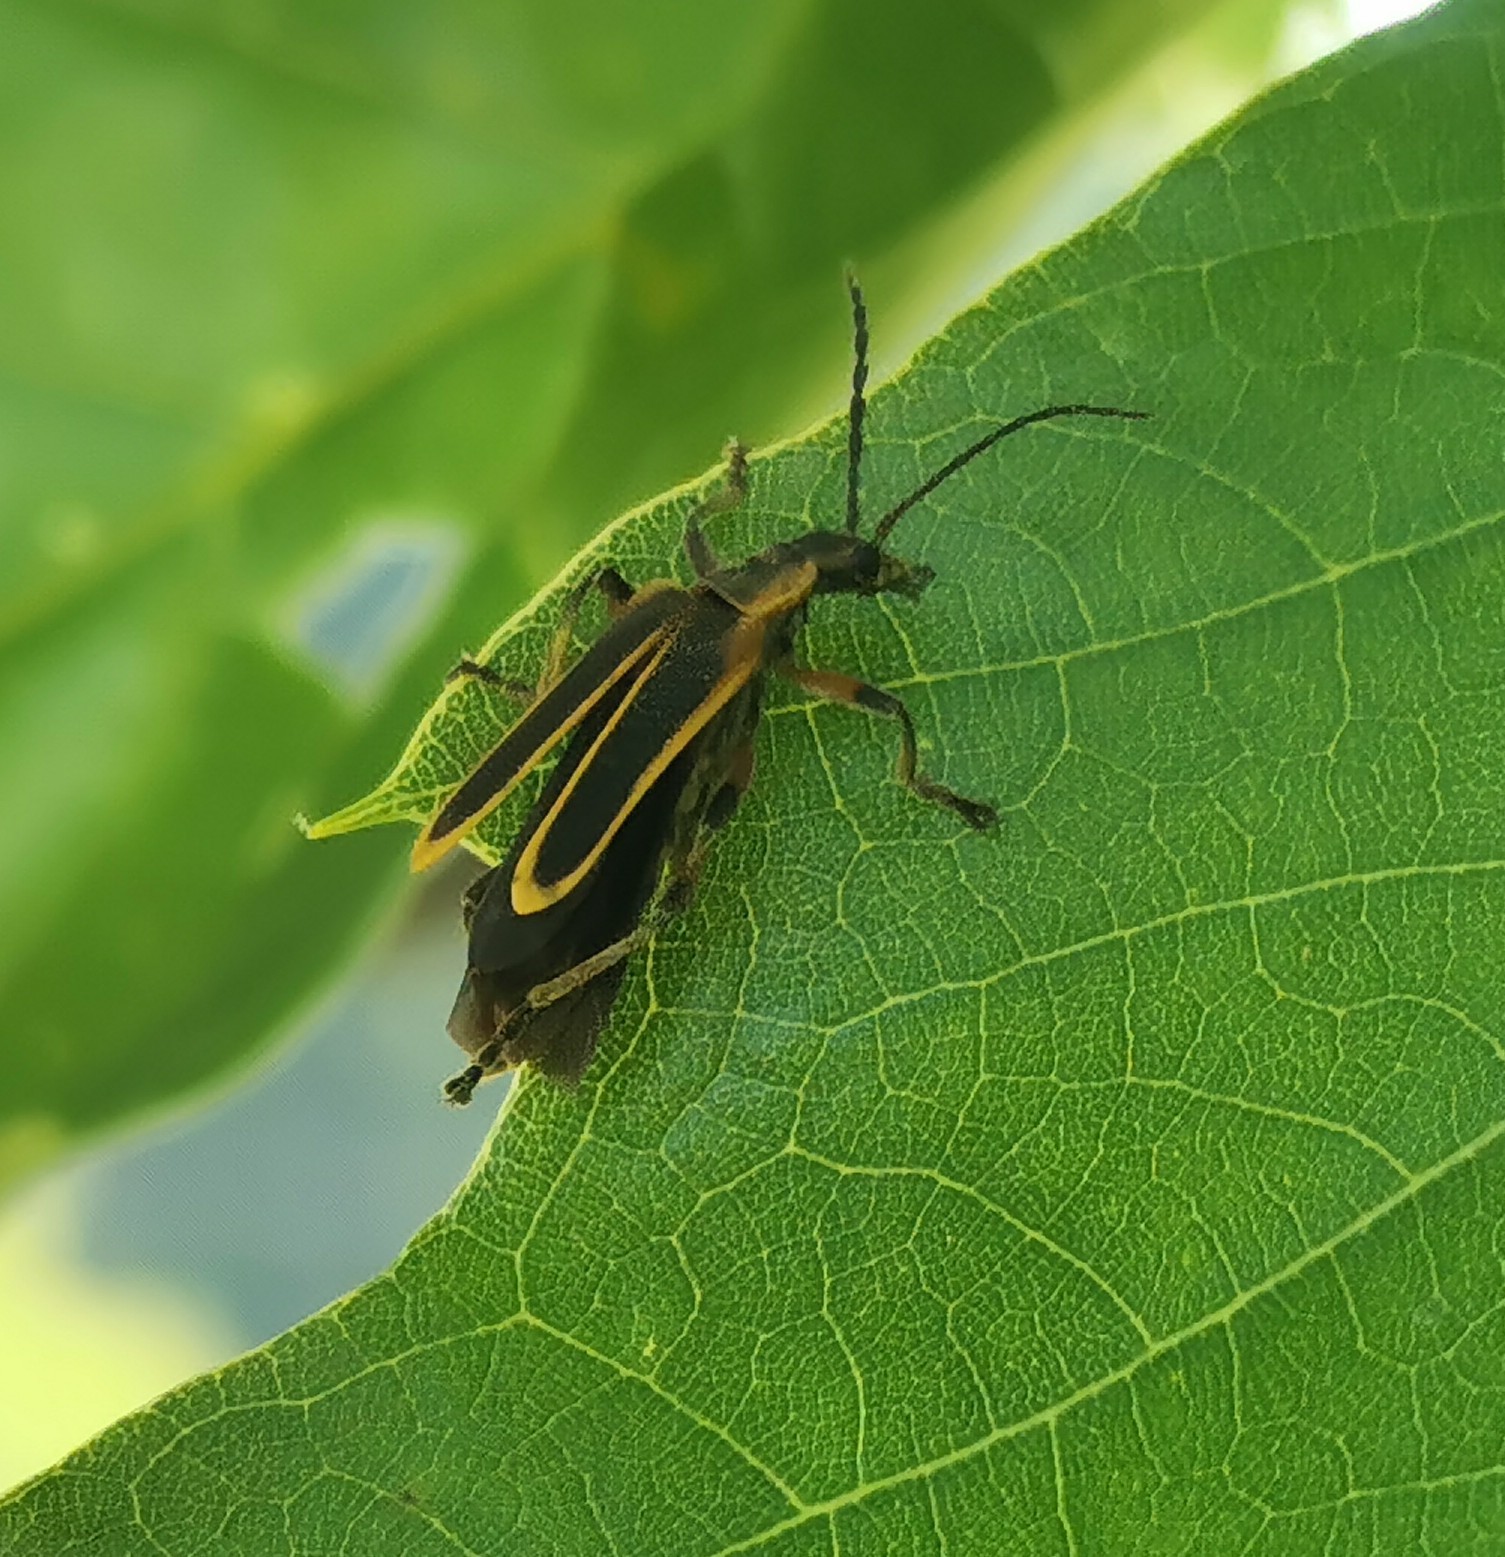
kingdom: Animalia
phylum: Arthropoda
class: Insecta
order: Coleoptera
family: Cantharidae
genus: Chauliognathus
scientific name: Chauliognathus marginatus
